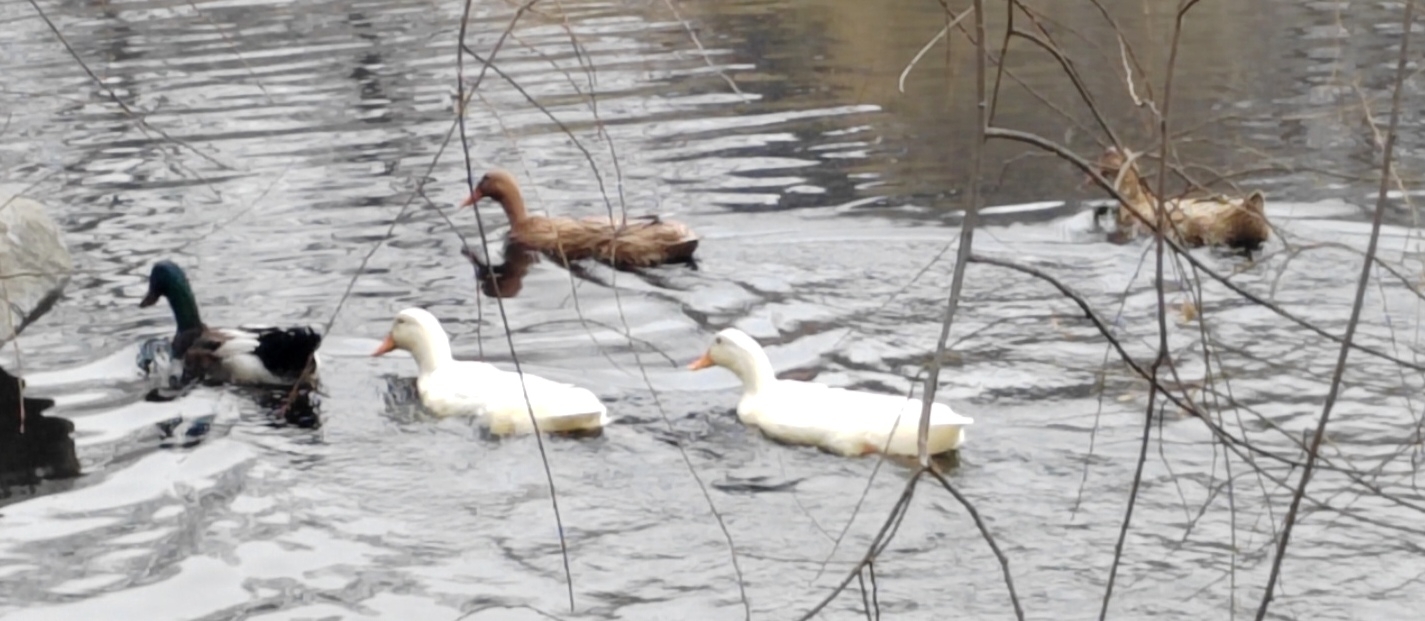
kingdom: Animalia
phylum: Chordata
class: Aves
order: Anseriformes
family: Anatidae
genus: Anas
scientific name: Anas platyrhynchos
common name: Mallard
